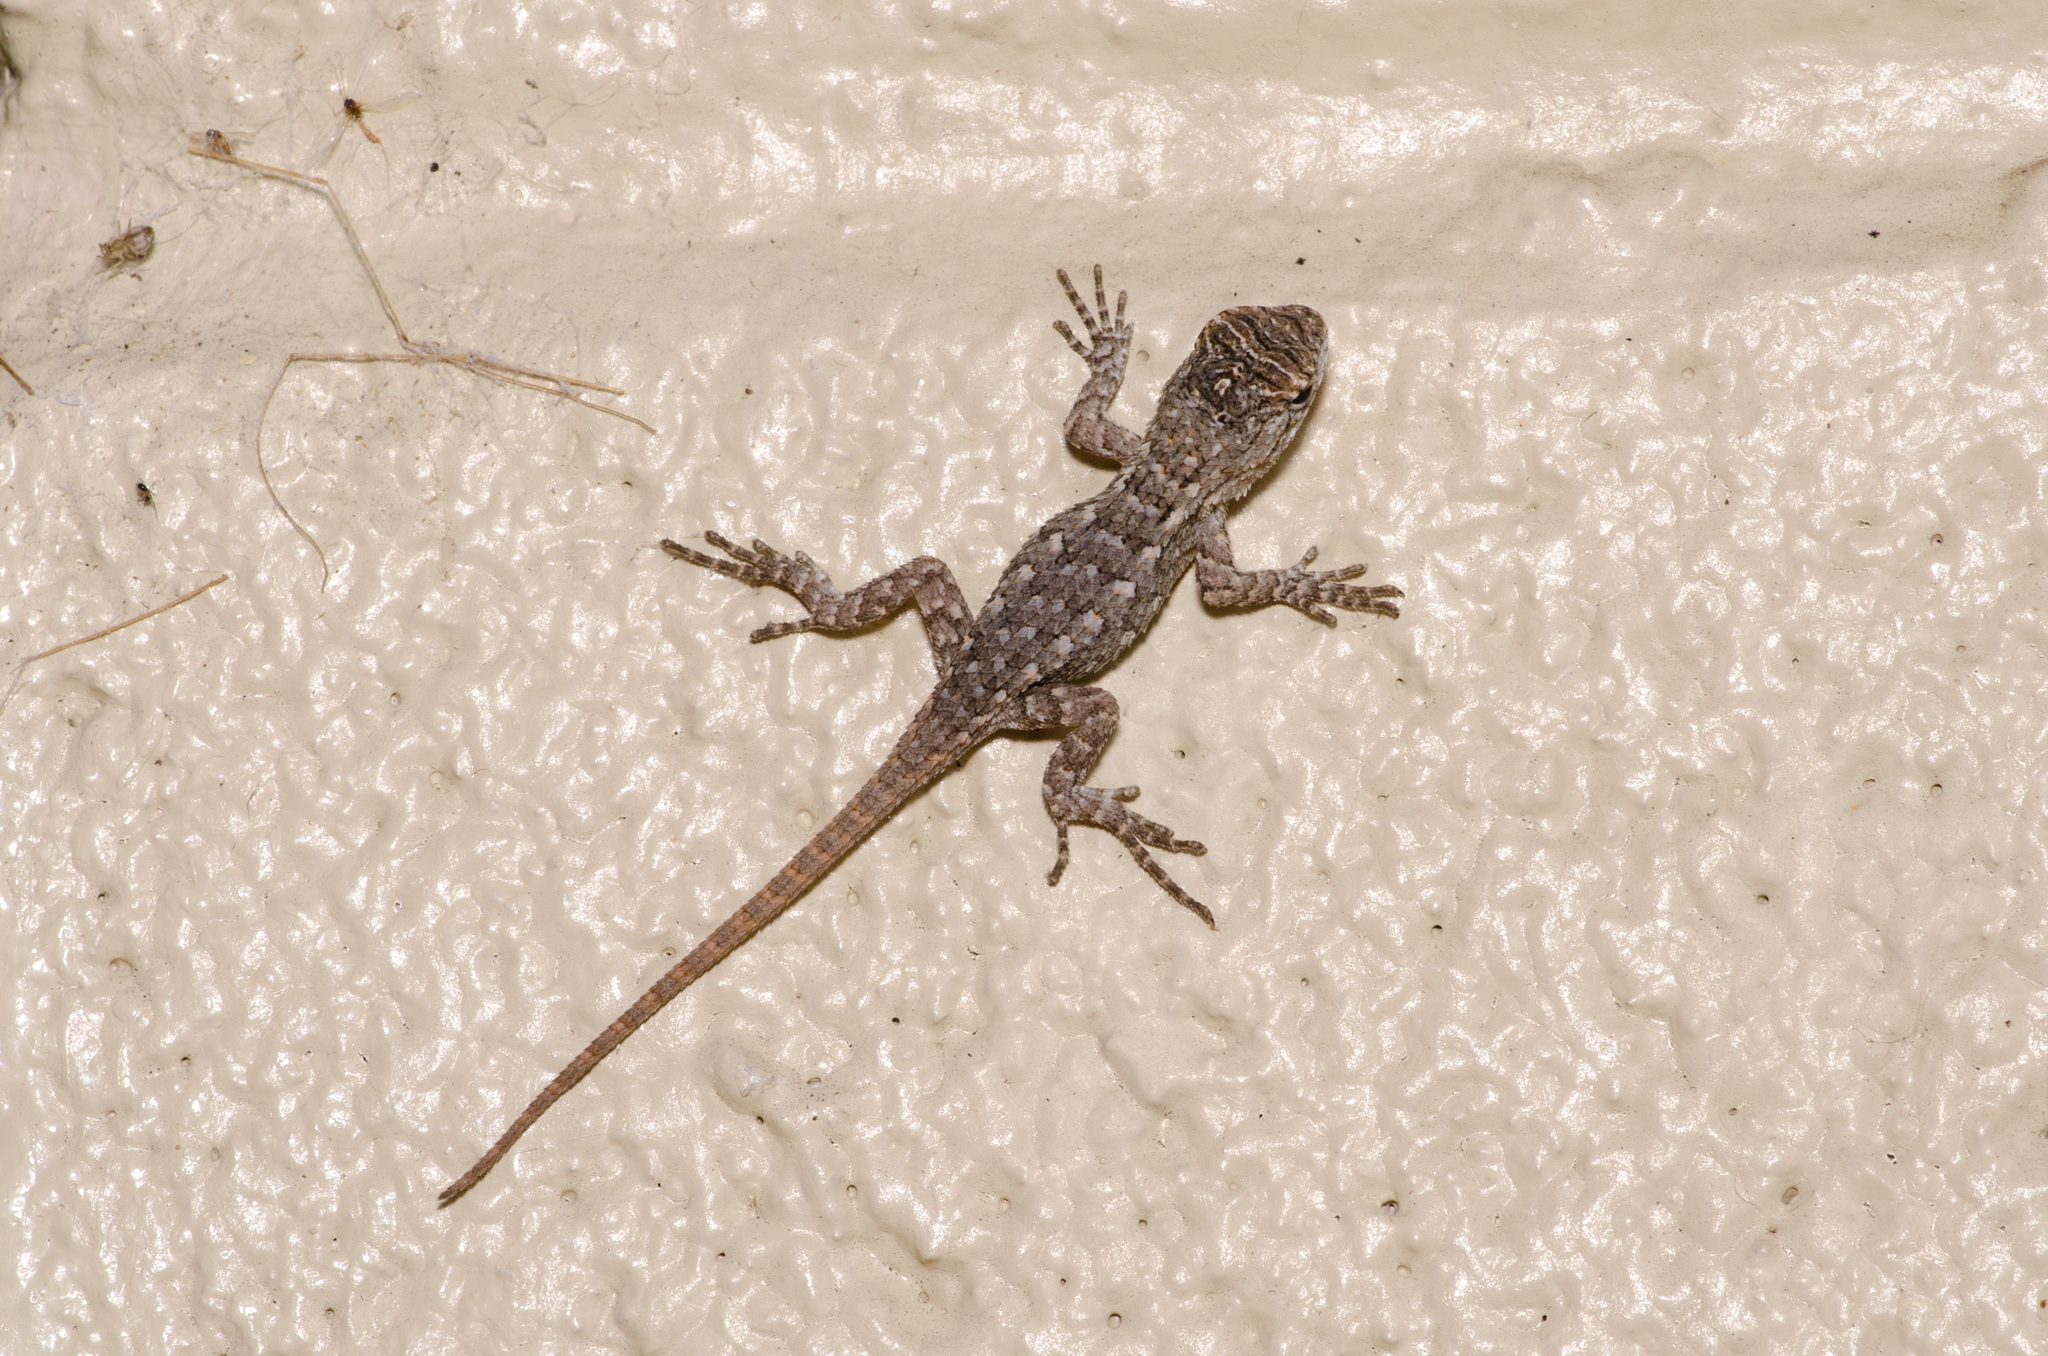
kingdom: Animalia
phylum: Chordata
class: Squamata
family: Phrynosomatidae
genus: Sceloporus
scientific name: Sceloporus olivaceus
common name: Texas spiny lizard
